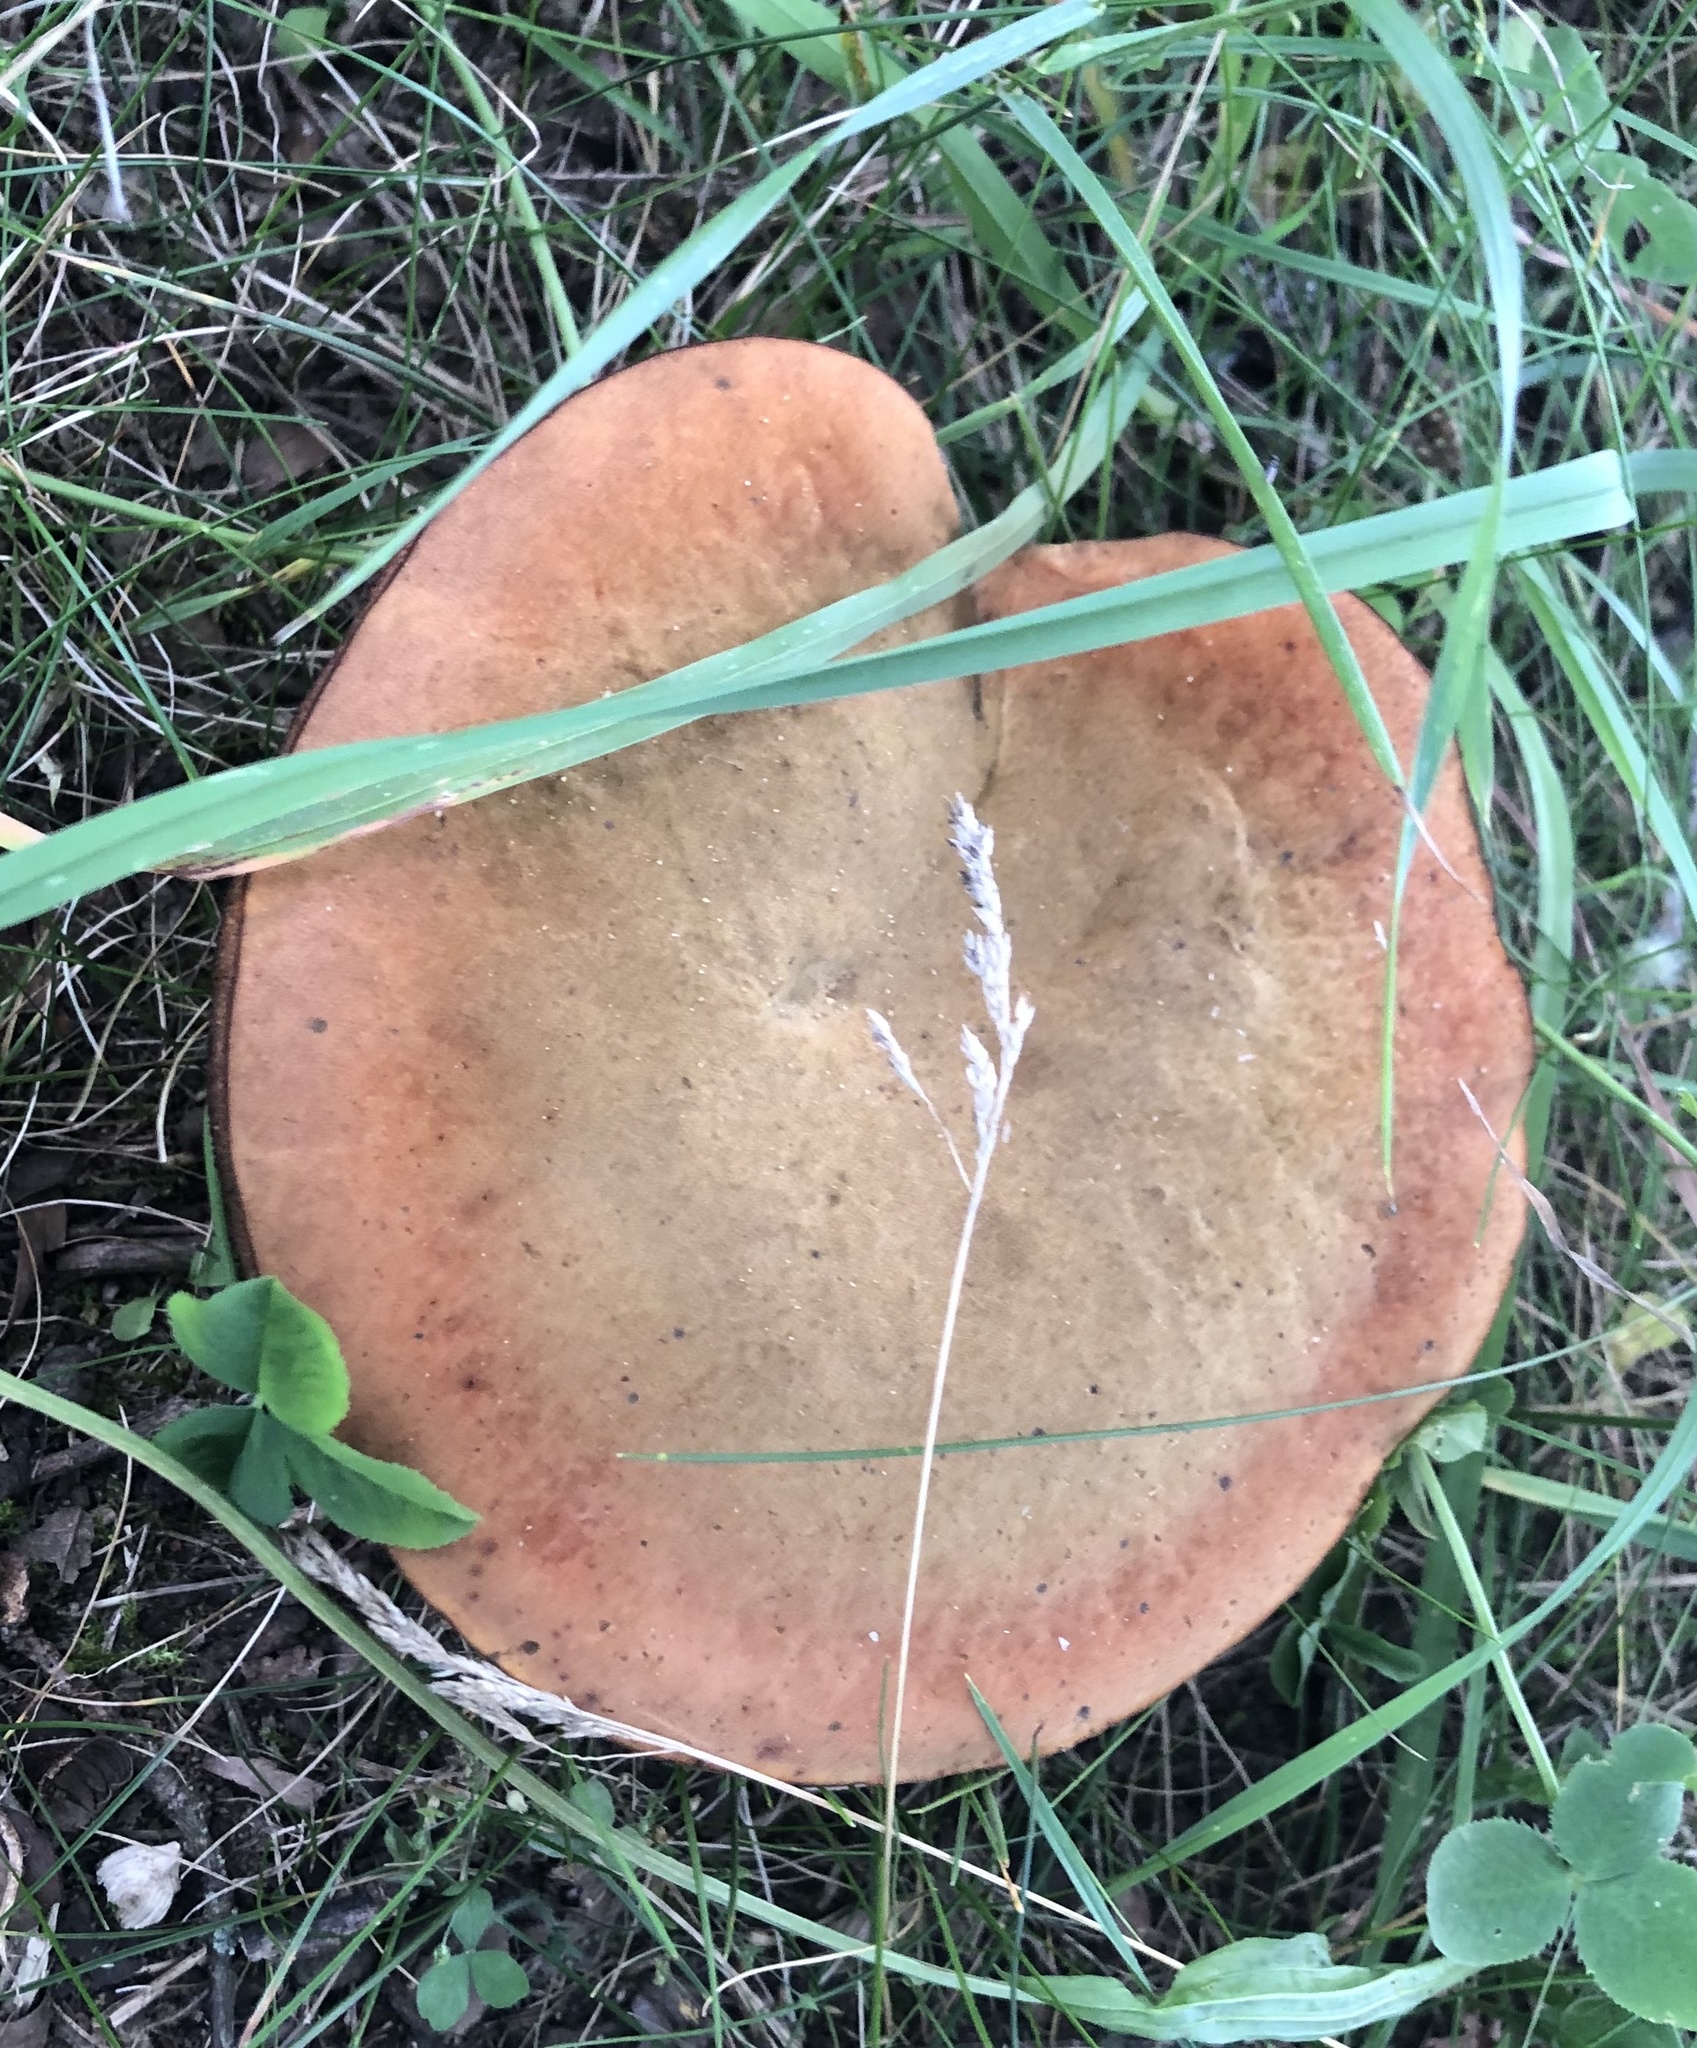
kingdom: Fungi
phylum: Basidiomycota
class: Agaricomycetes
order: Boletales
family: Boletaceae
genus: Suillellus
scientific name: Suillellus luridus
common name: Lurid bolete
